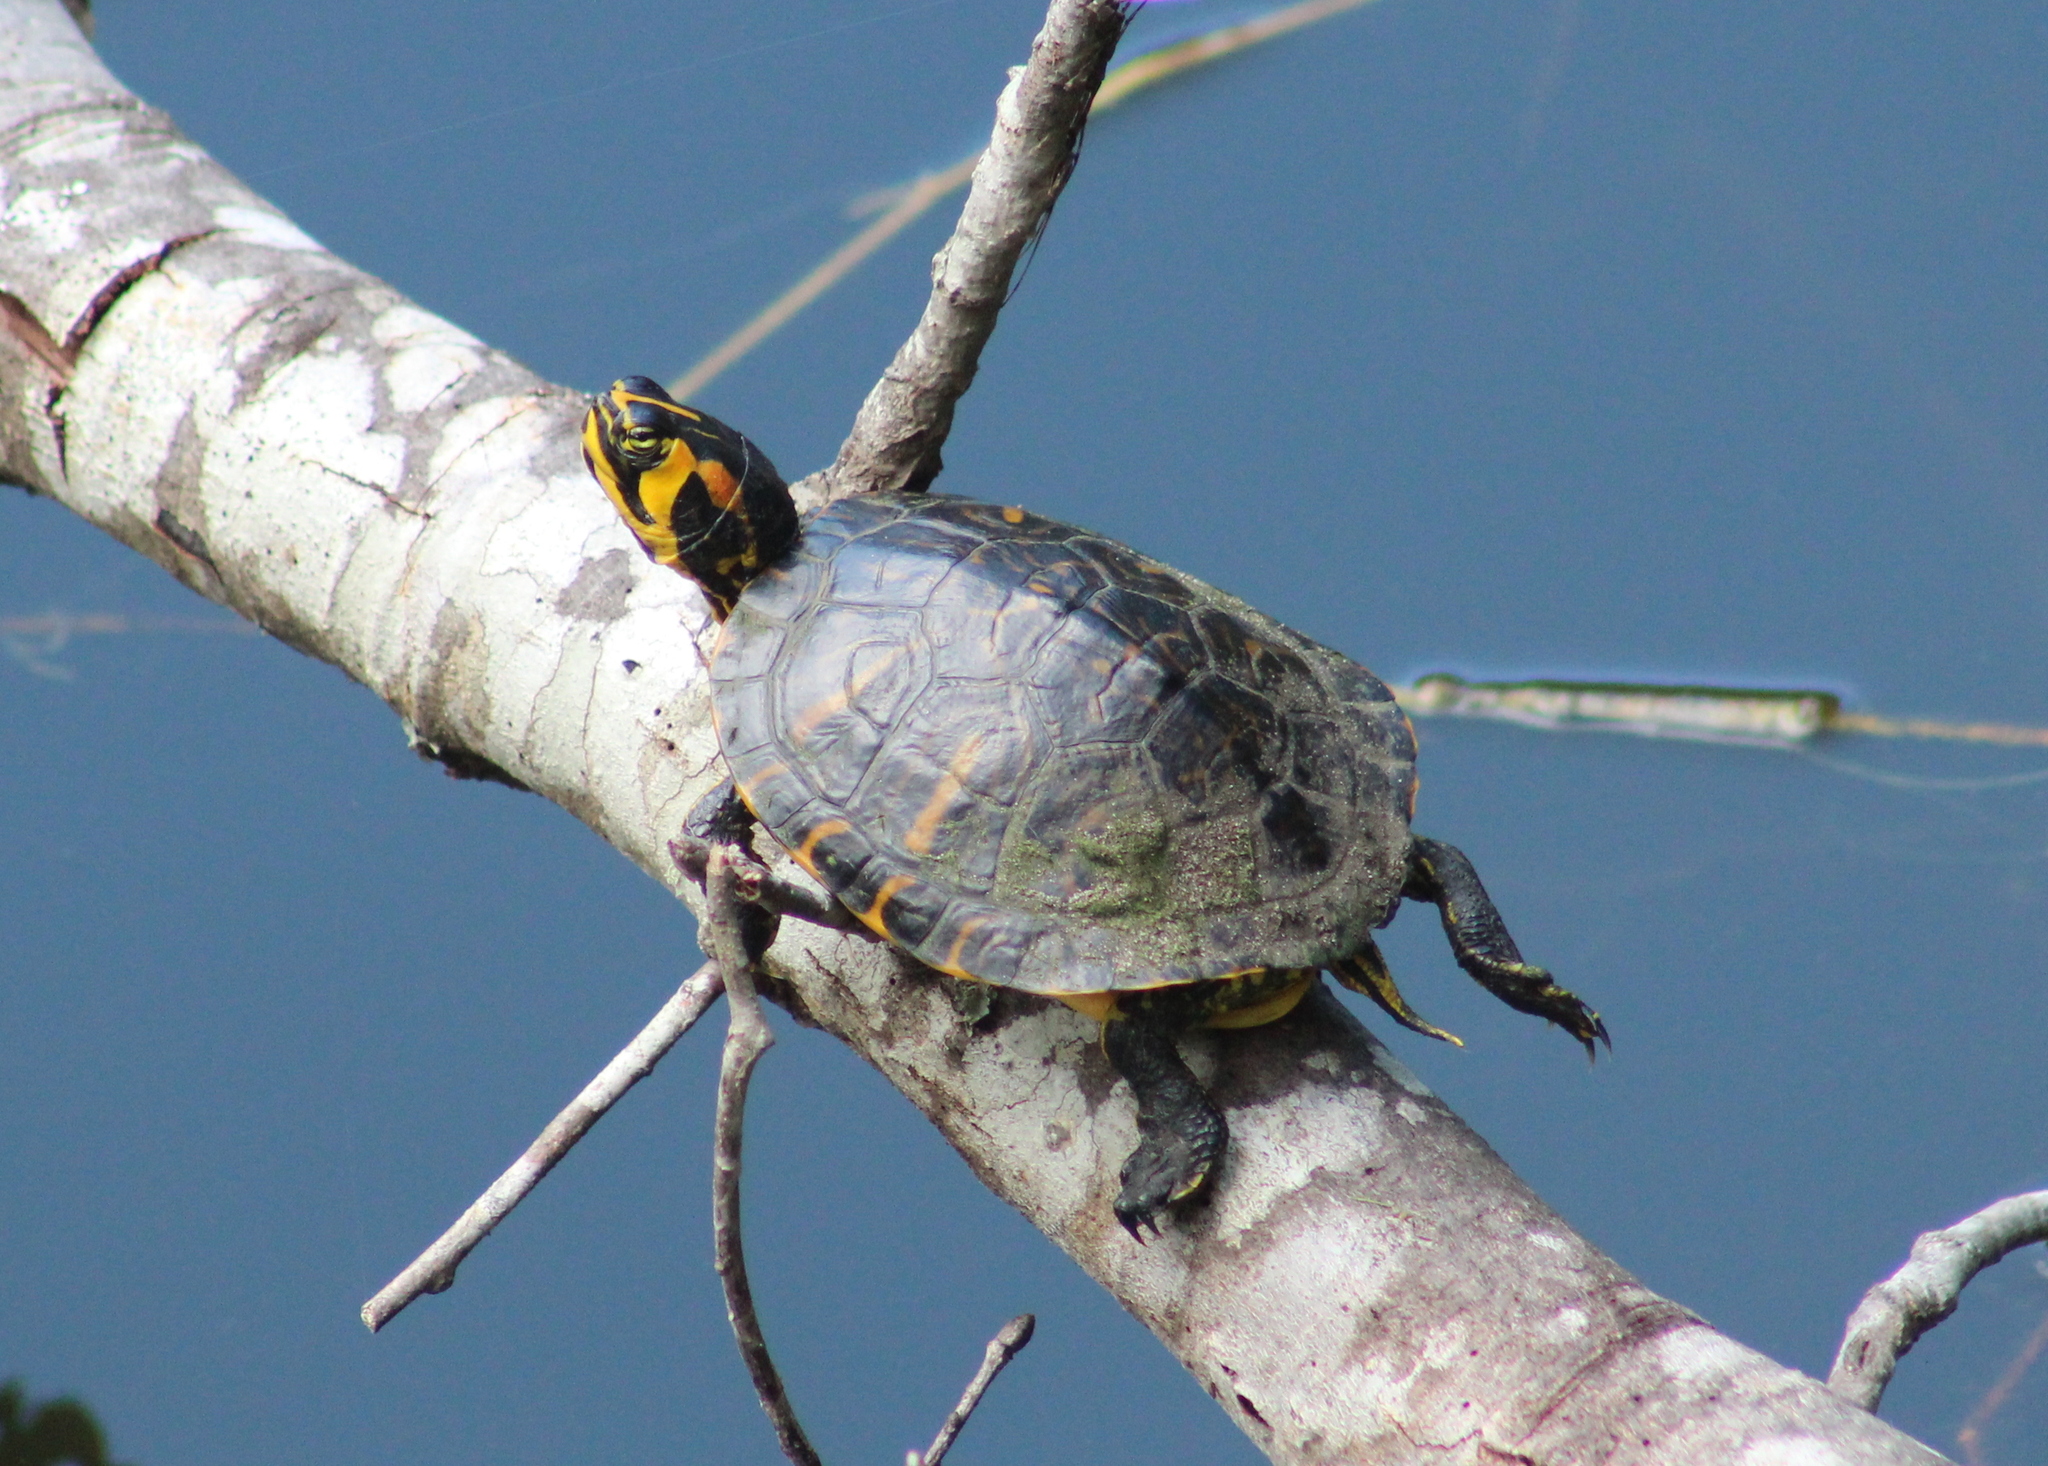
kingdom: Animalia
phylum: Chordata
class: Testudines
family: Emydidae
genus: Trachemys
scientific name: Trachemys scripta
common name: Slider
